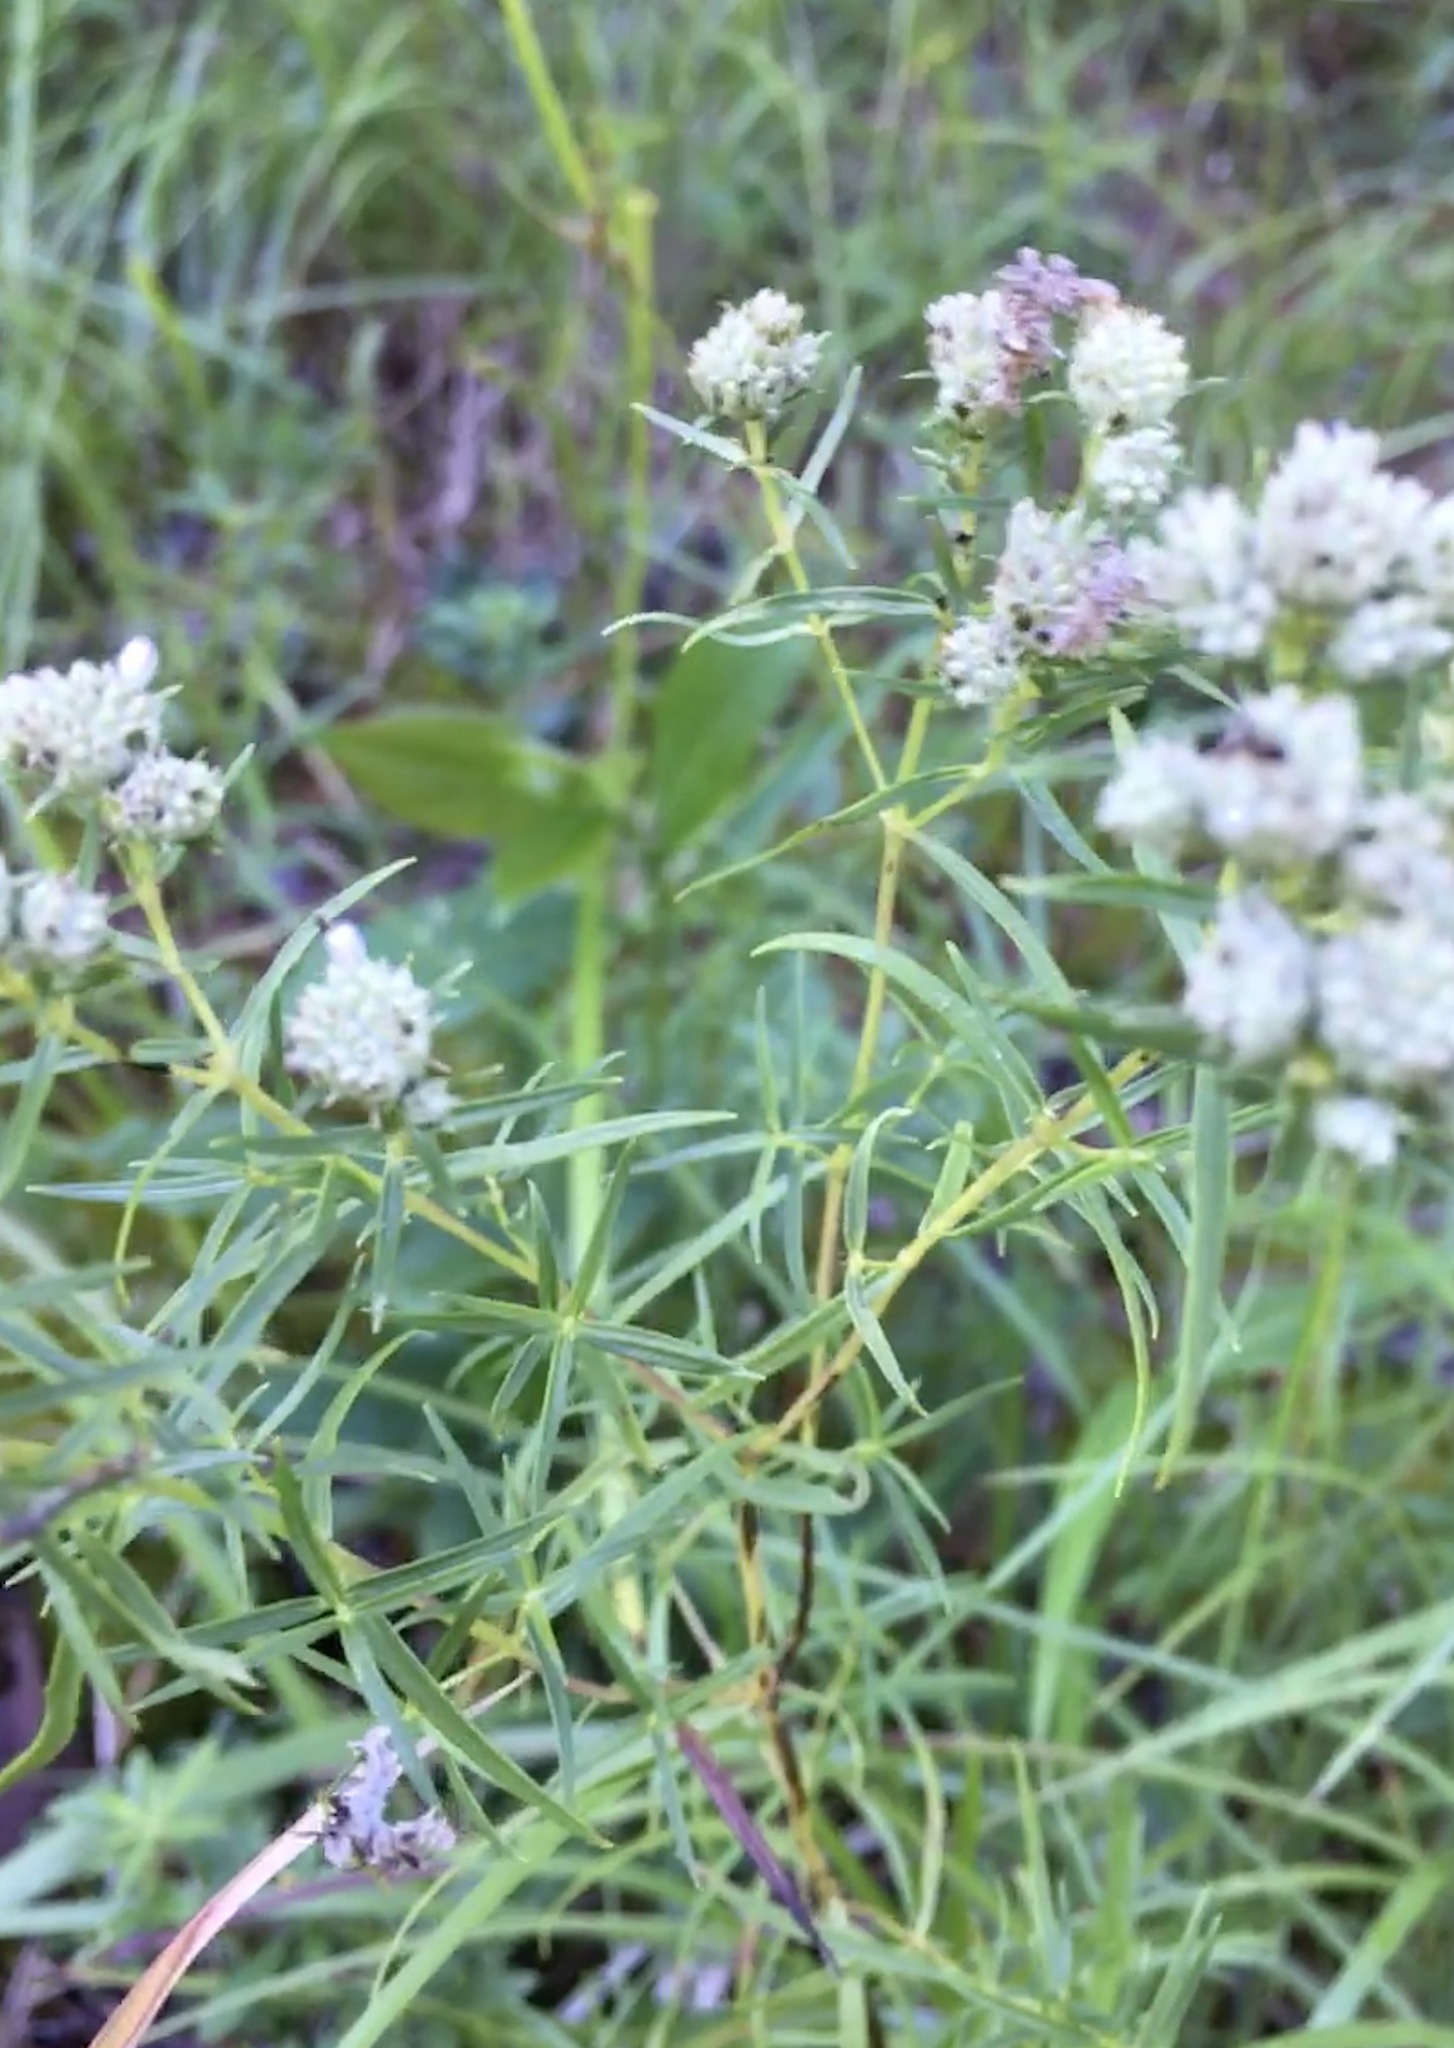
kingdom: Plantae
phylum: Tracheophyta
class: Magnoliopsida
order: Lamiales
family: Lamiaceae
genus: Pycnanthemum
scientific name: Pycnanthemum tenuifolium
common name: Narrow-leaf mountain-mint
